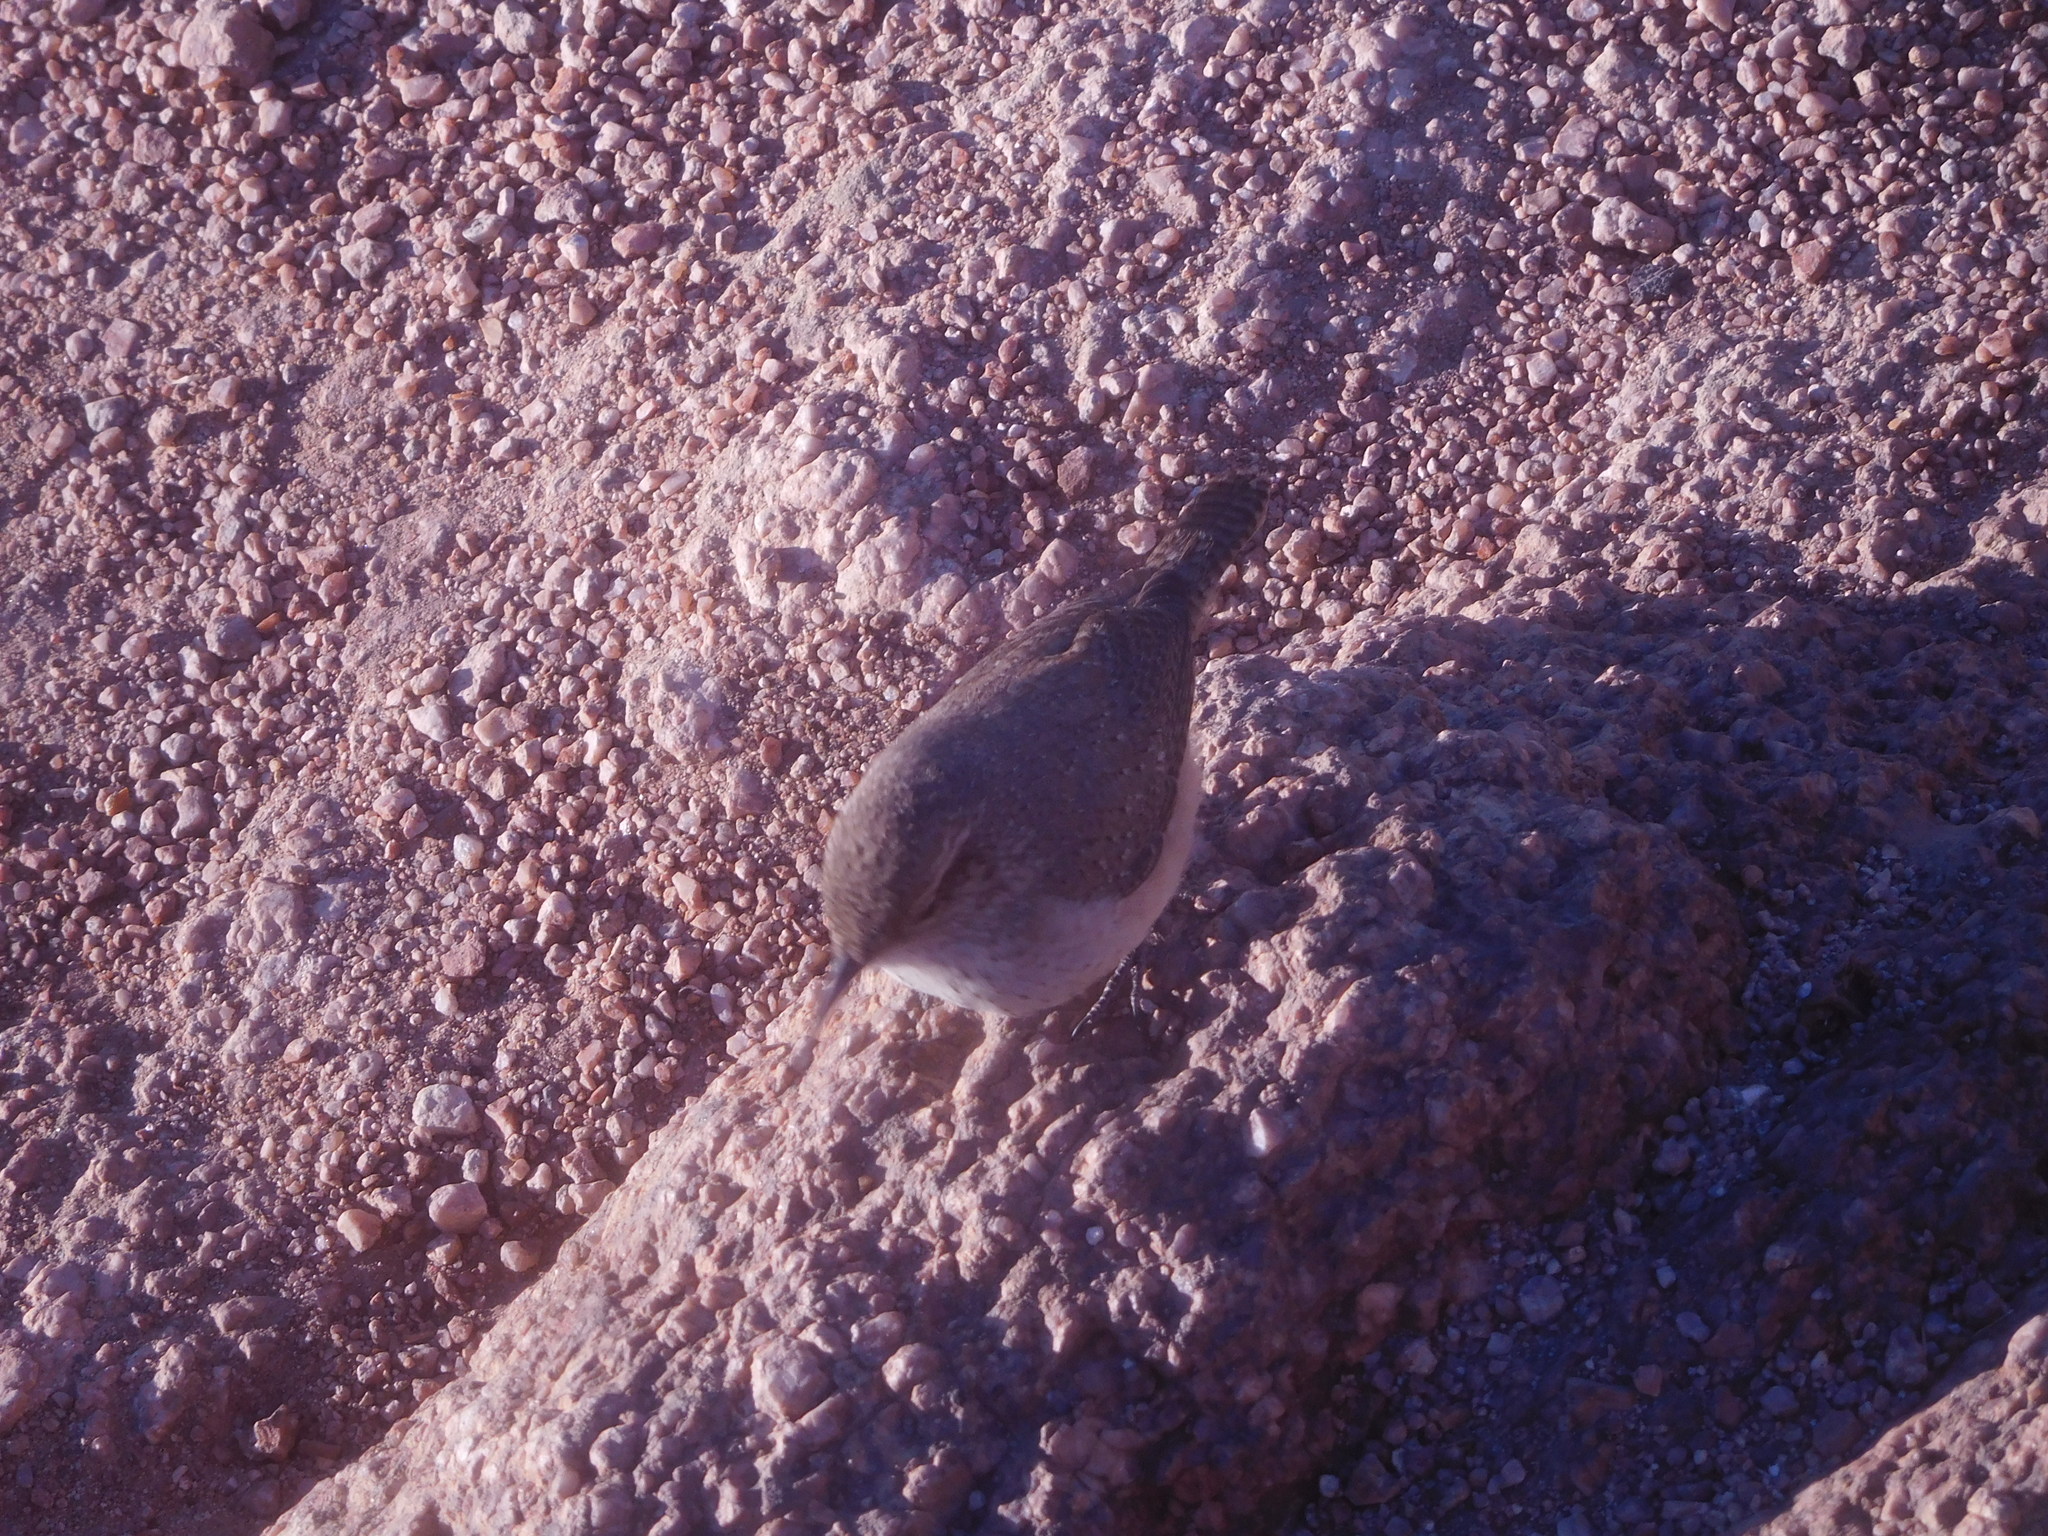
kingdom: Animalia
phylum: Chordata
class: Aves
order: Passeriformes
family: Troglodytidae
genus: Salpinctes
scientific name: Salpinctes obsoletus
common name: Rock wren
